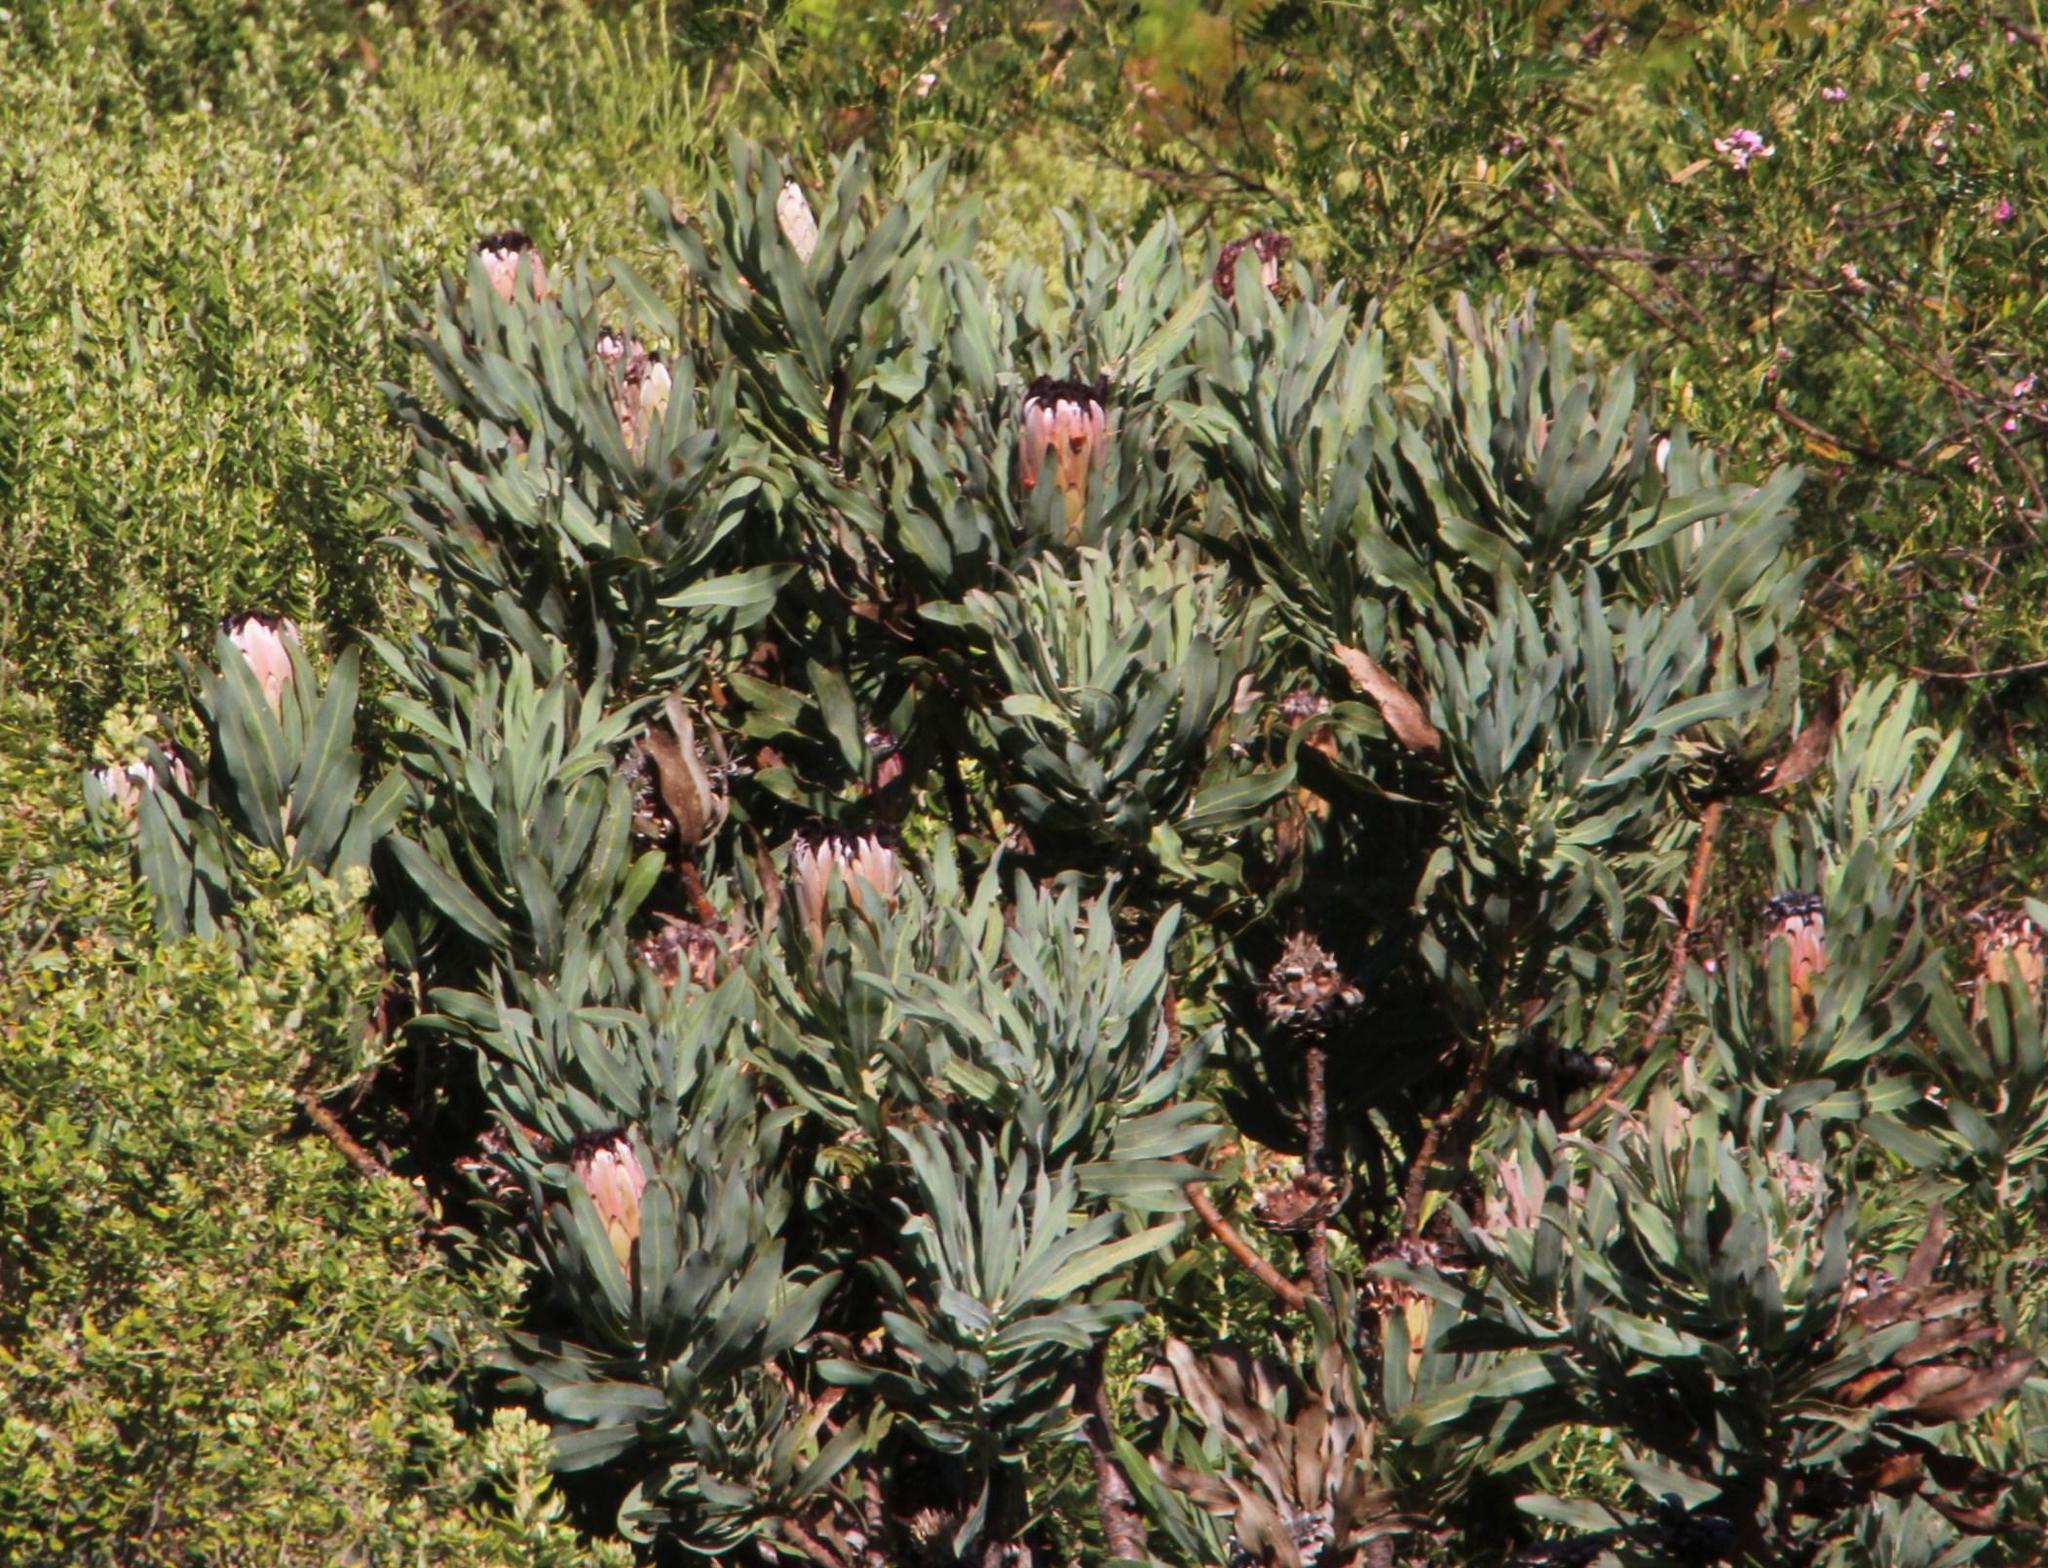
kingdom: Plantae
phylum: Tracheophyta
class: Magnoliopsida
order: Proteales
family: Proteaceae
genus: Protea
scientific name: Protea laurifolia
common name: Grey-leaf sugarbsh
